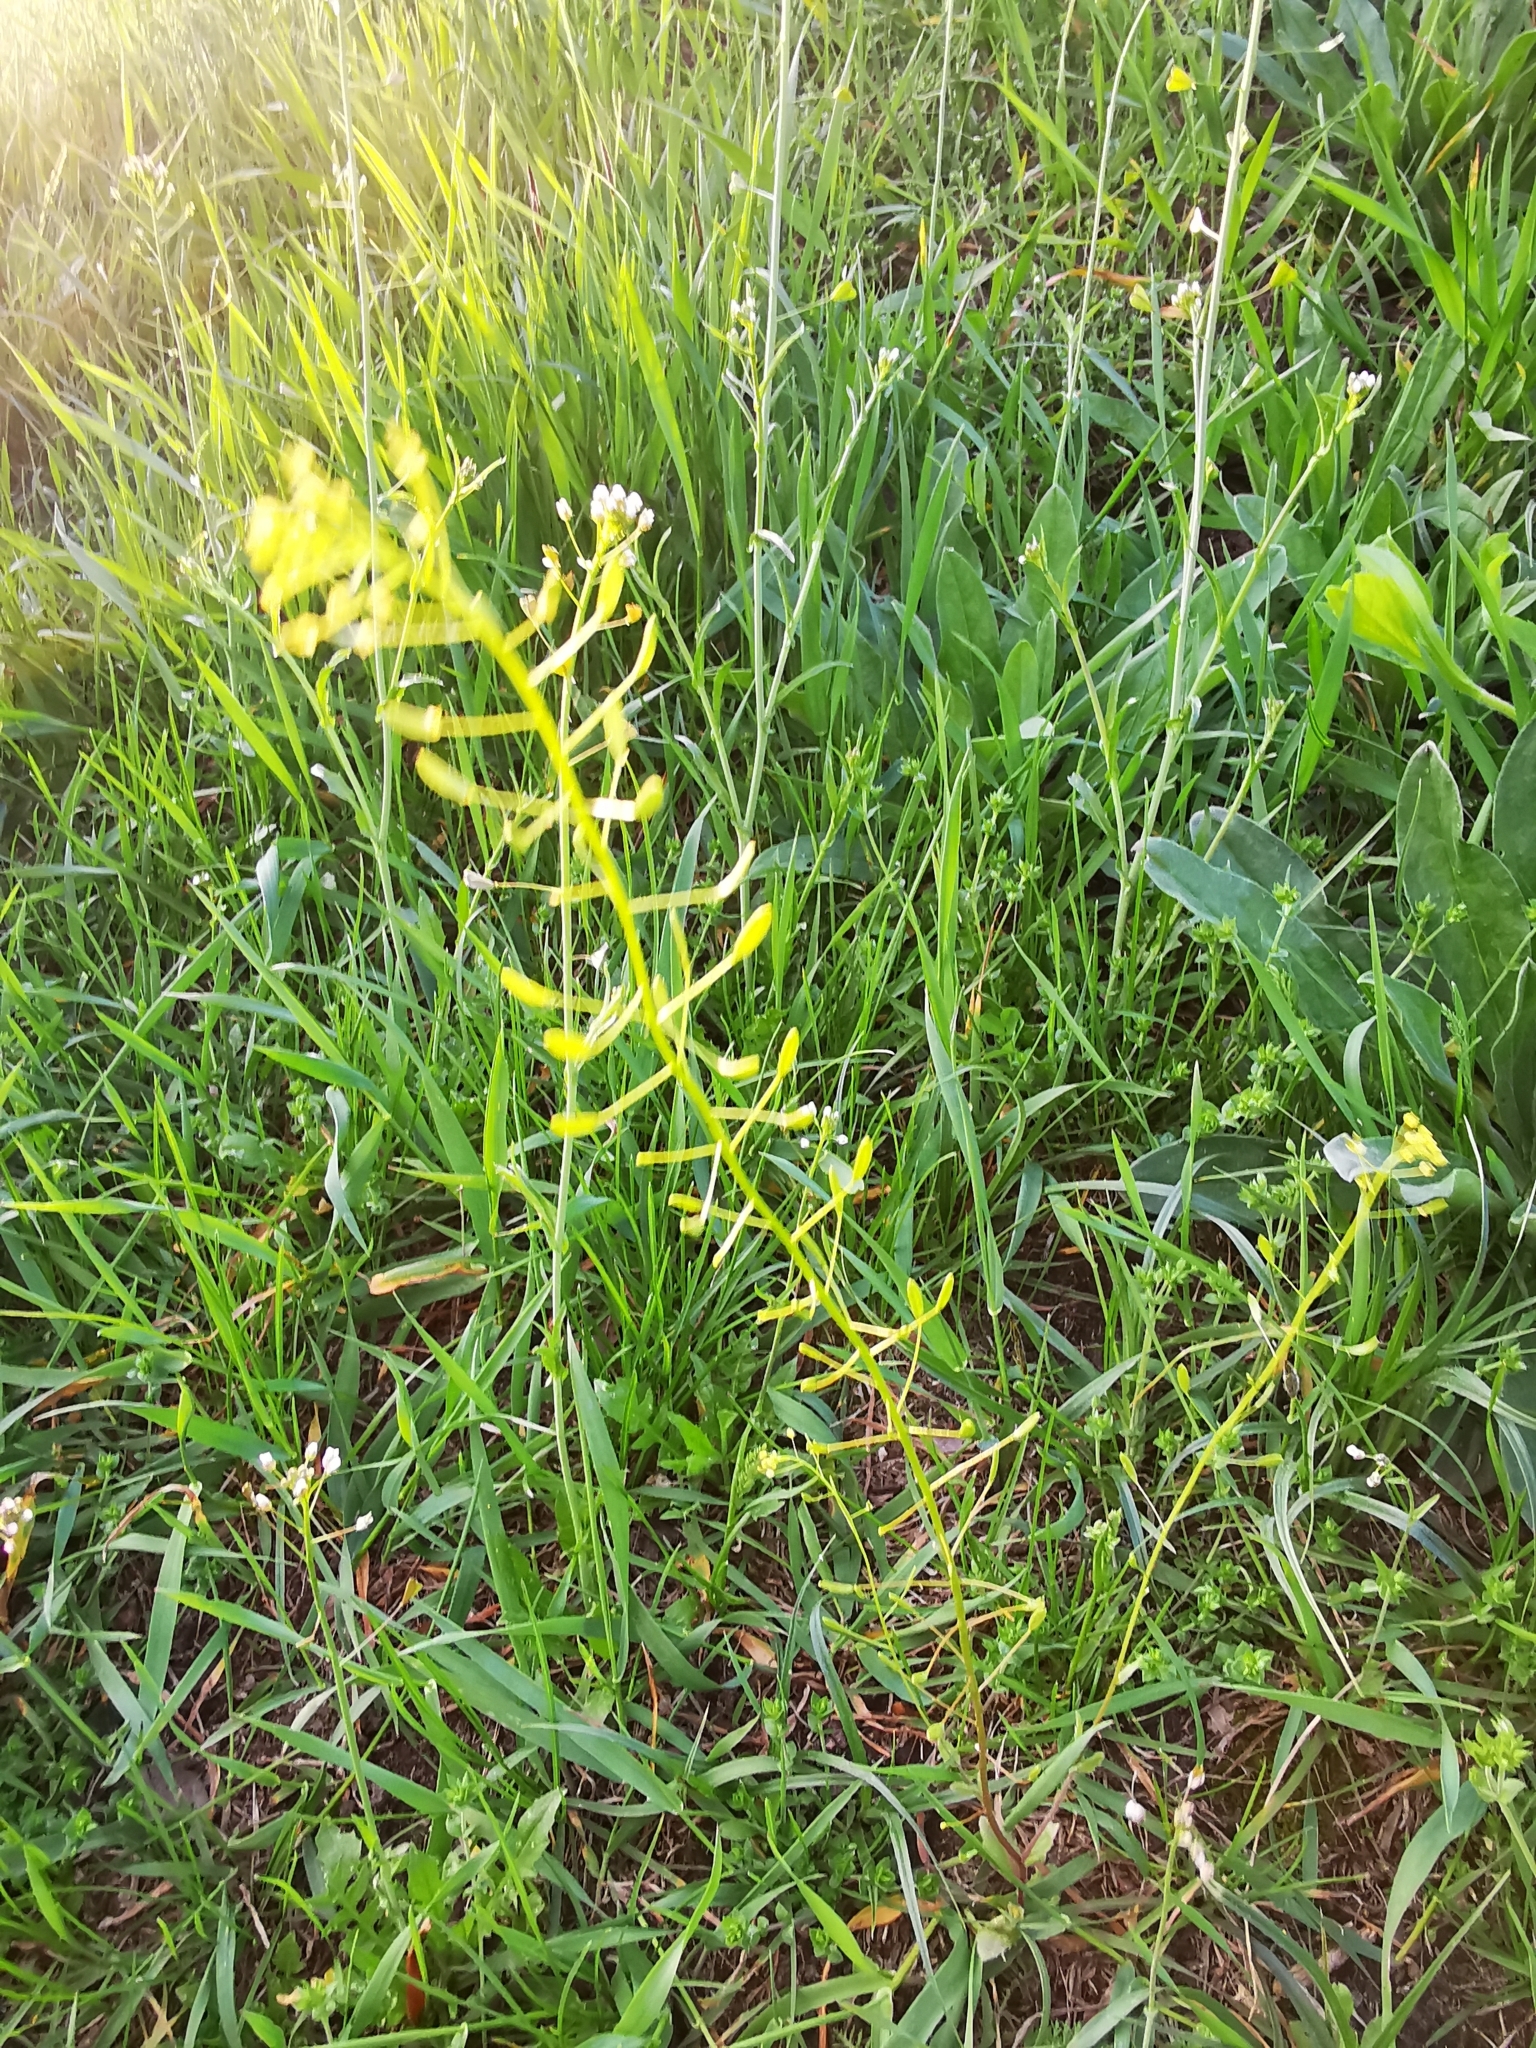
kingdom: Plantae
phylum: Tracheophyta
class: Magnoliopsida
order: Brassicales
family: Brassicaceae
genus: Draba
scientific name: Draba nemorosa
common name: Wood whitlow-grass
